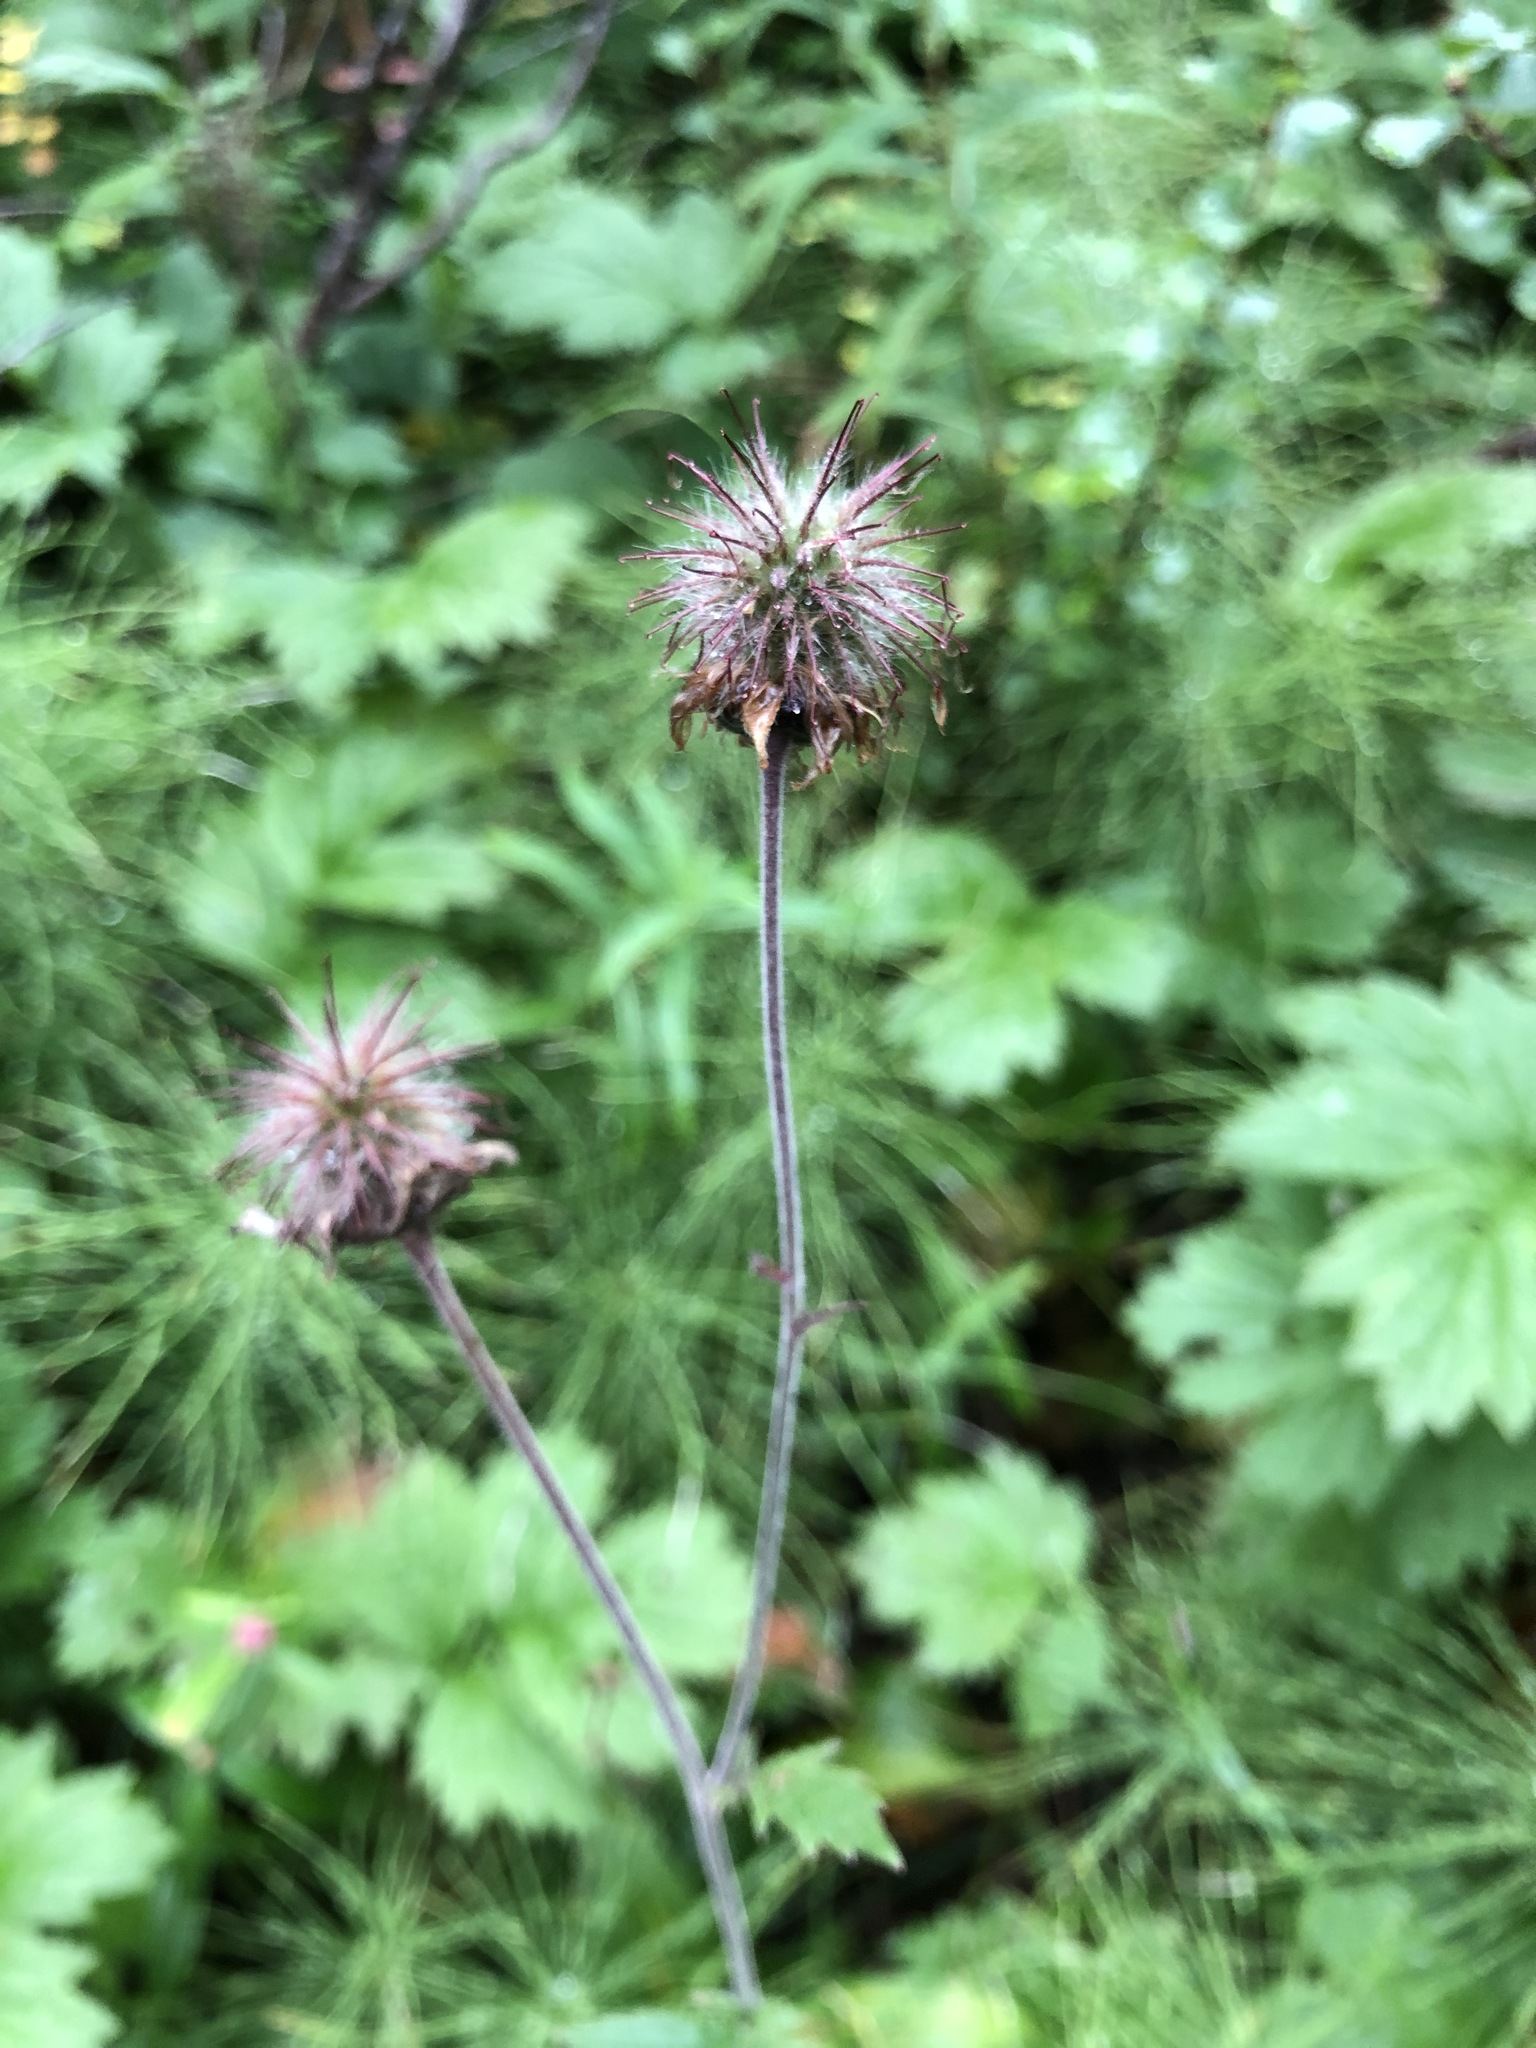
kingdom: Plantae
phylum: Tracheophyta
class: Magnoliopsida
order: Rosales
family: Rosaceae
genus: Geum
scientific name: Geum rivale
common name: Water avens
